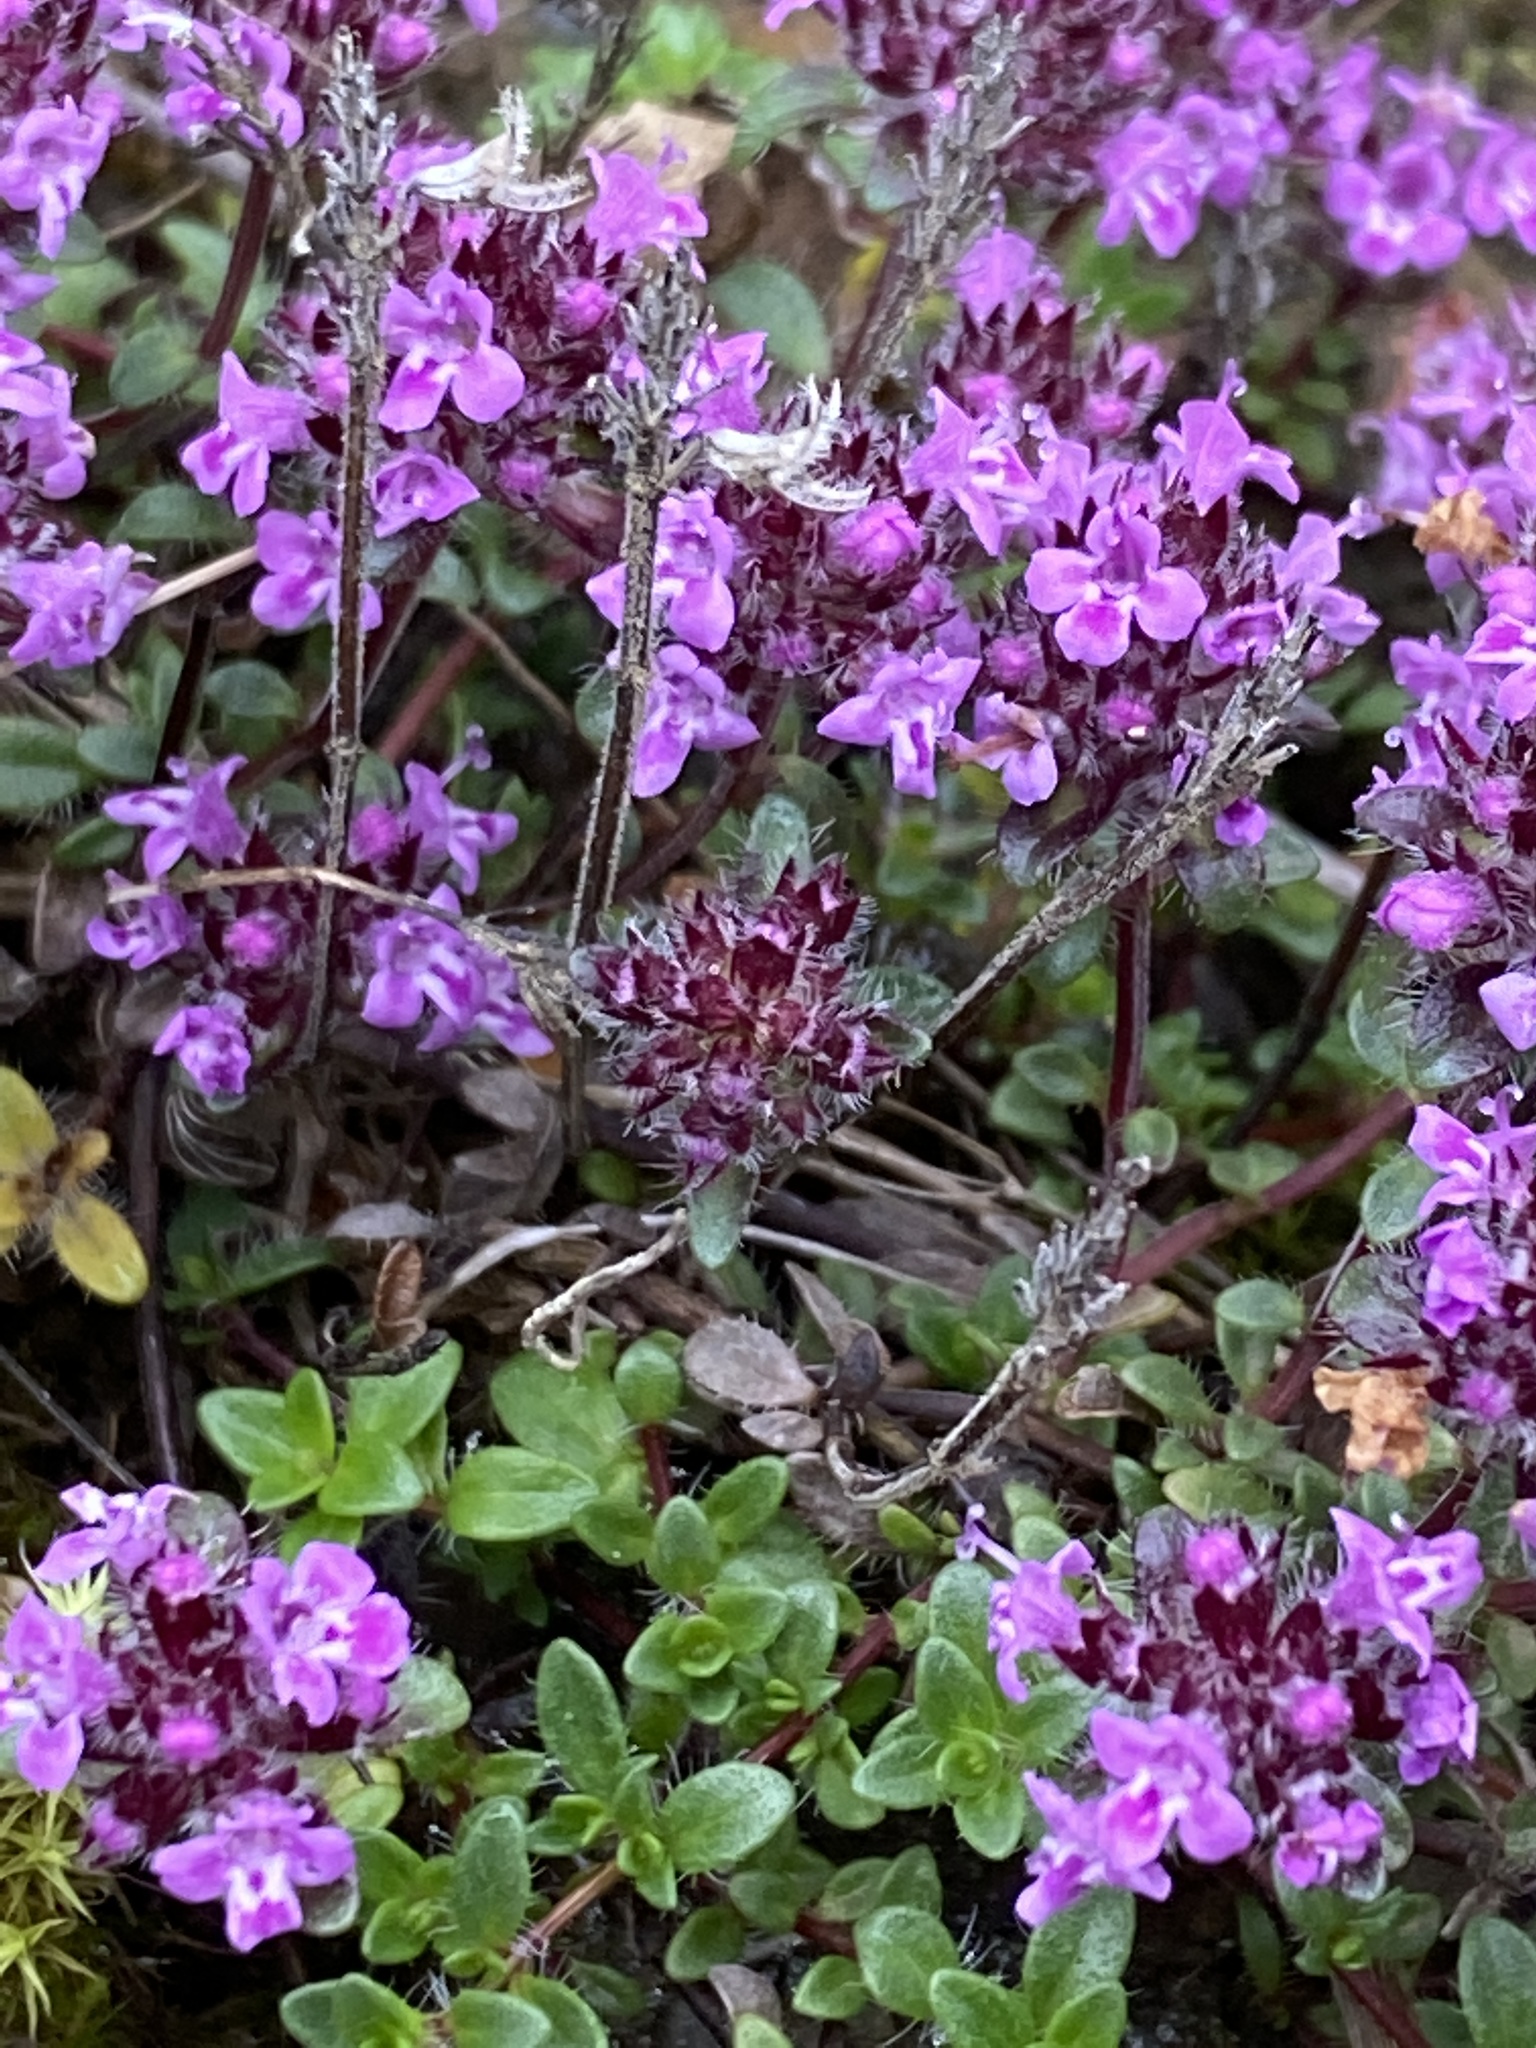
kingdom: Plantae
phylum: Tracheophyta
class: Magnoliopsida
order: Lamiales
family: Lamiaceae
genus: Thymus
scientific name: Thymus praecox
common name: Wild thyme
